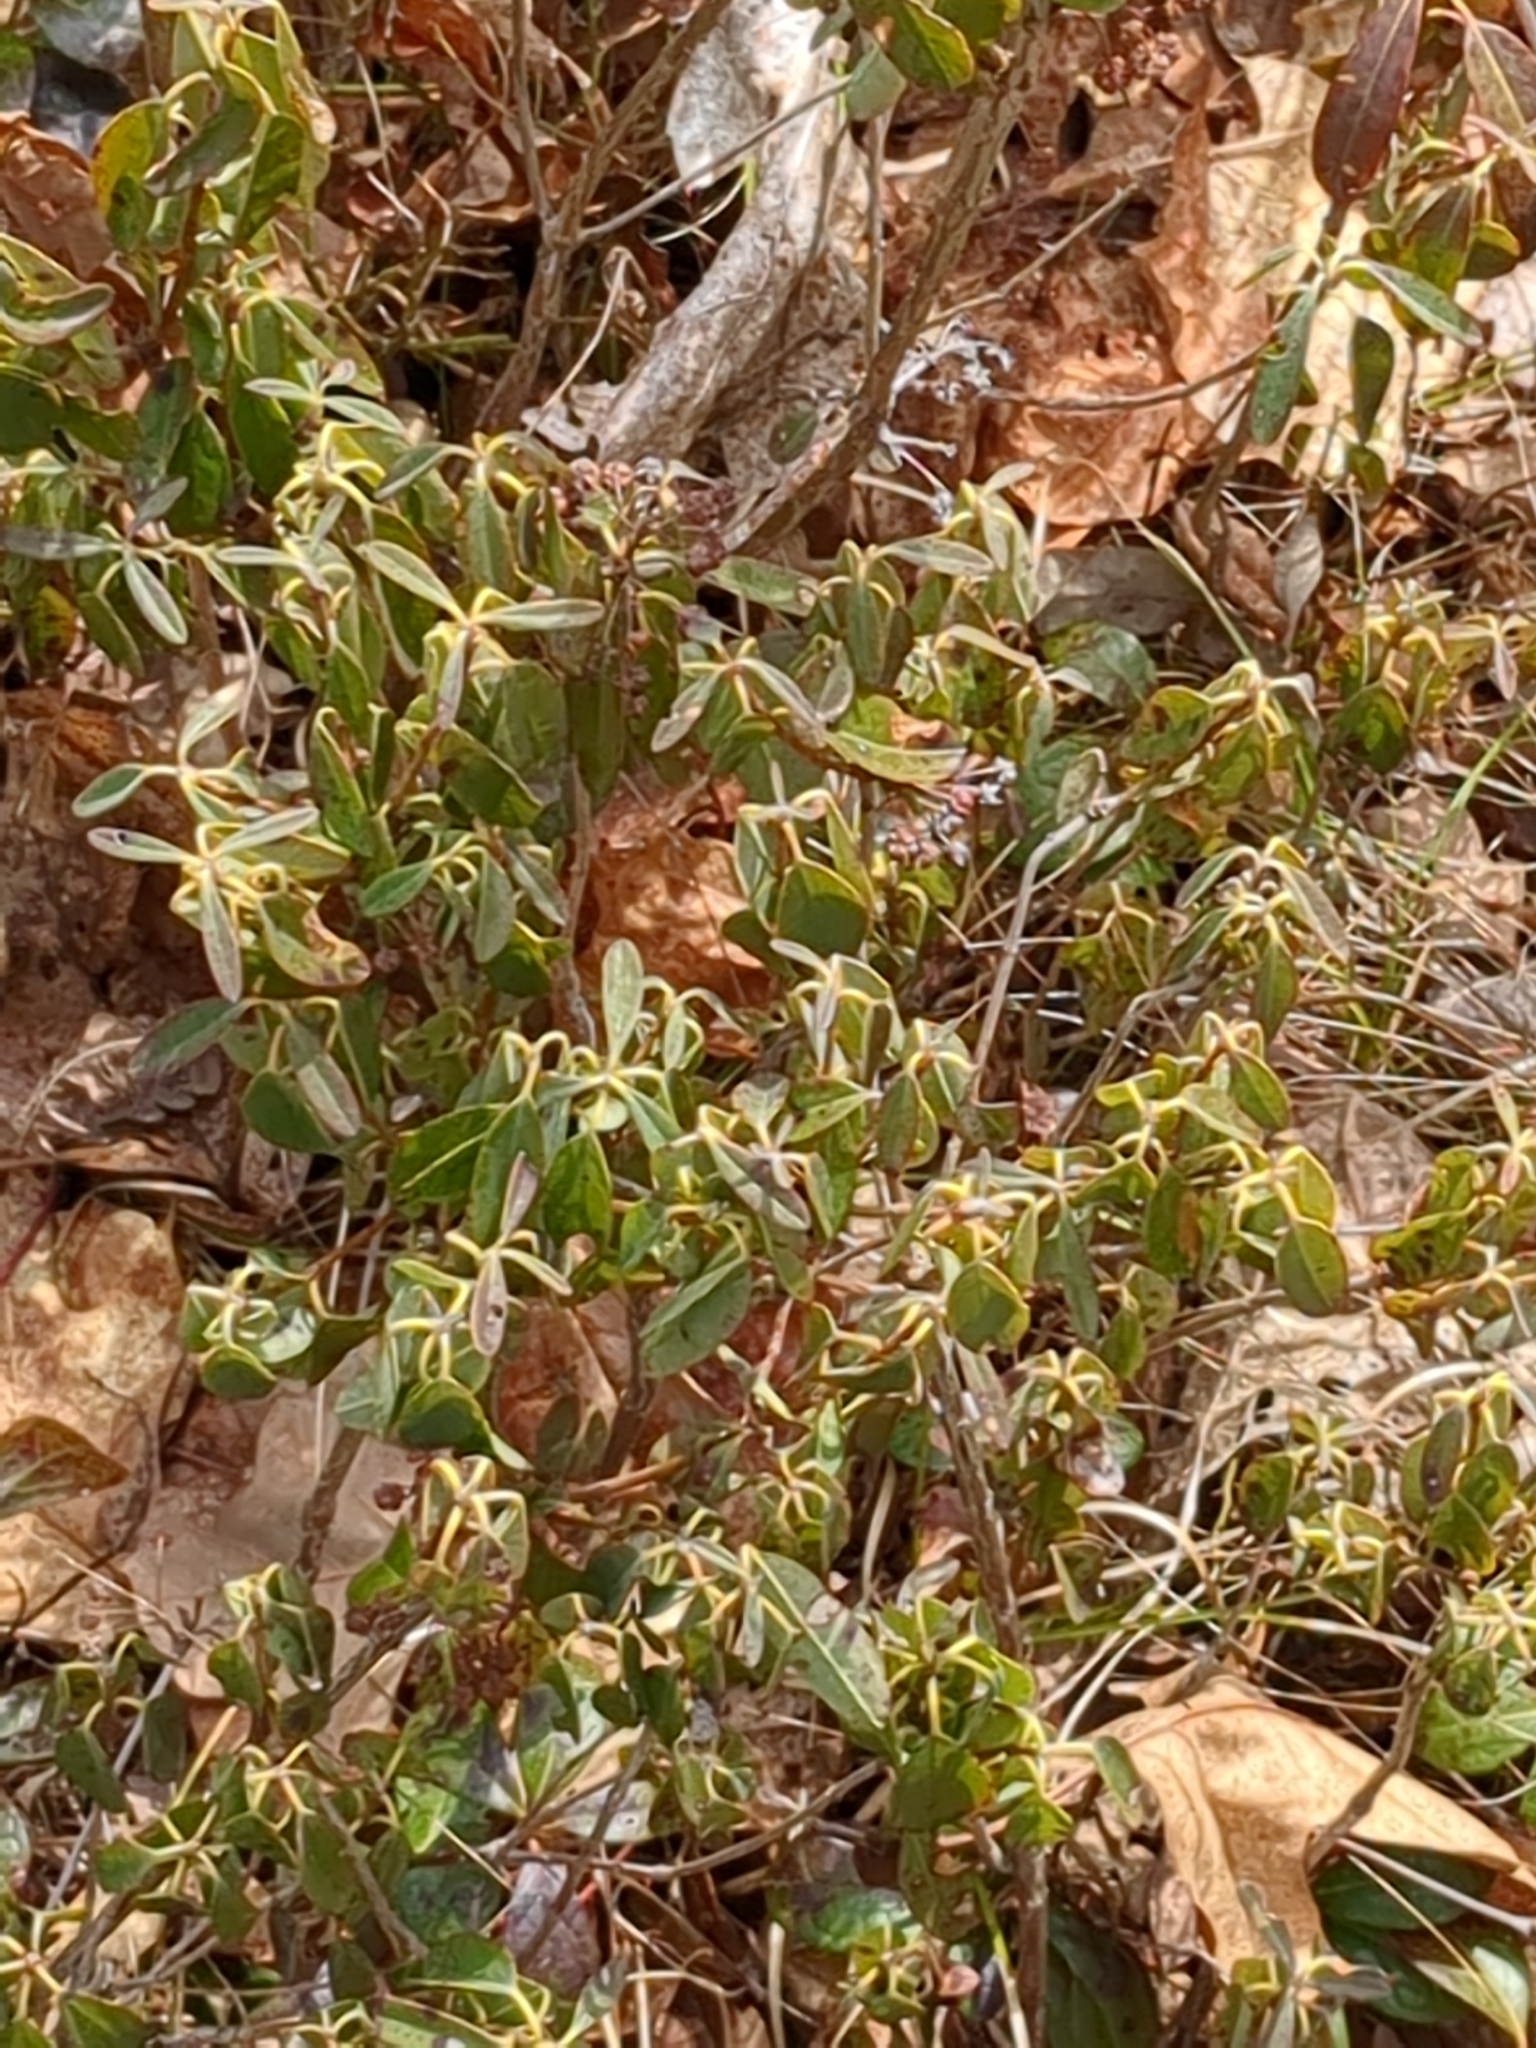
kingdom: Plantae
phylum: Tracheophyta
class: Magnoliopsida
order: Ericales
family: Ericaceae
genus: Kalmia
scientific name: Kalmia angustifolia
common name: Sheep-laurel
